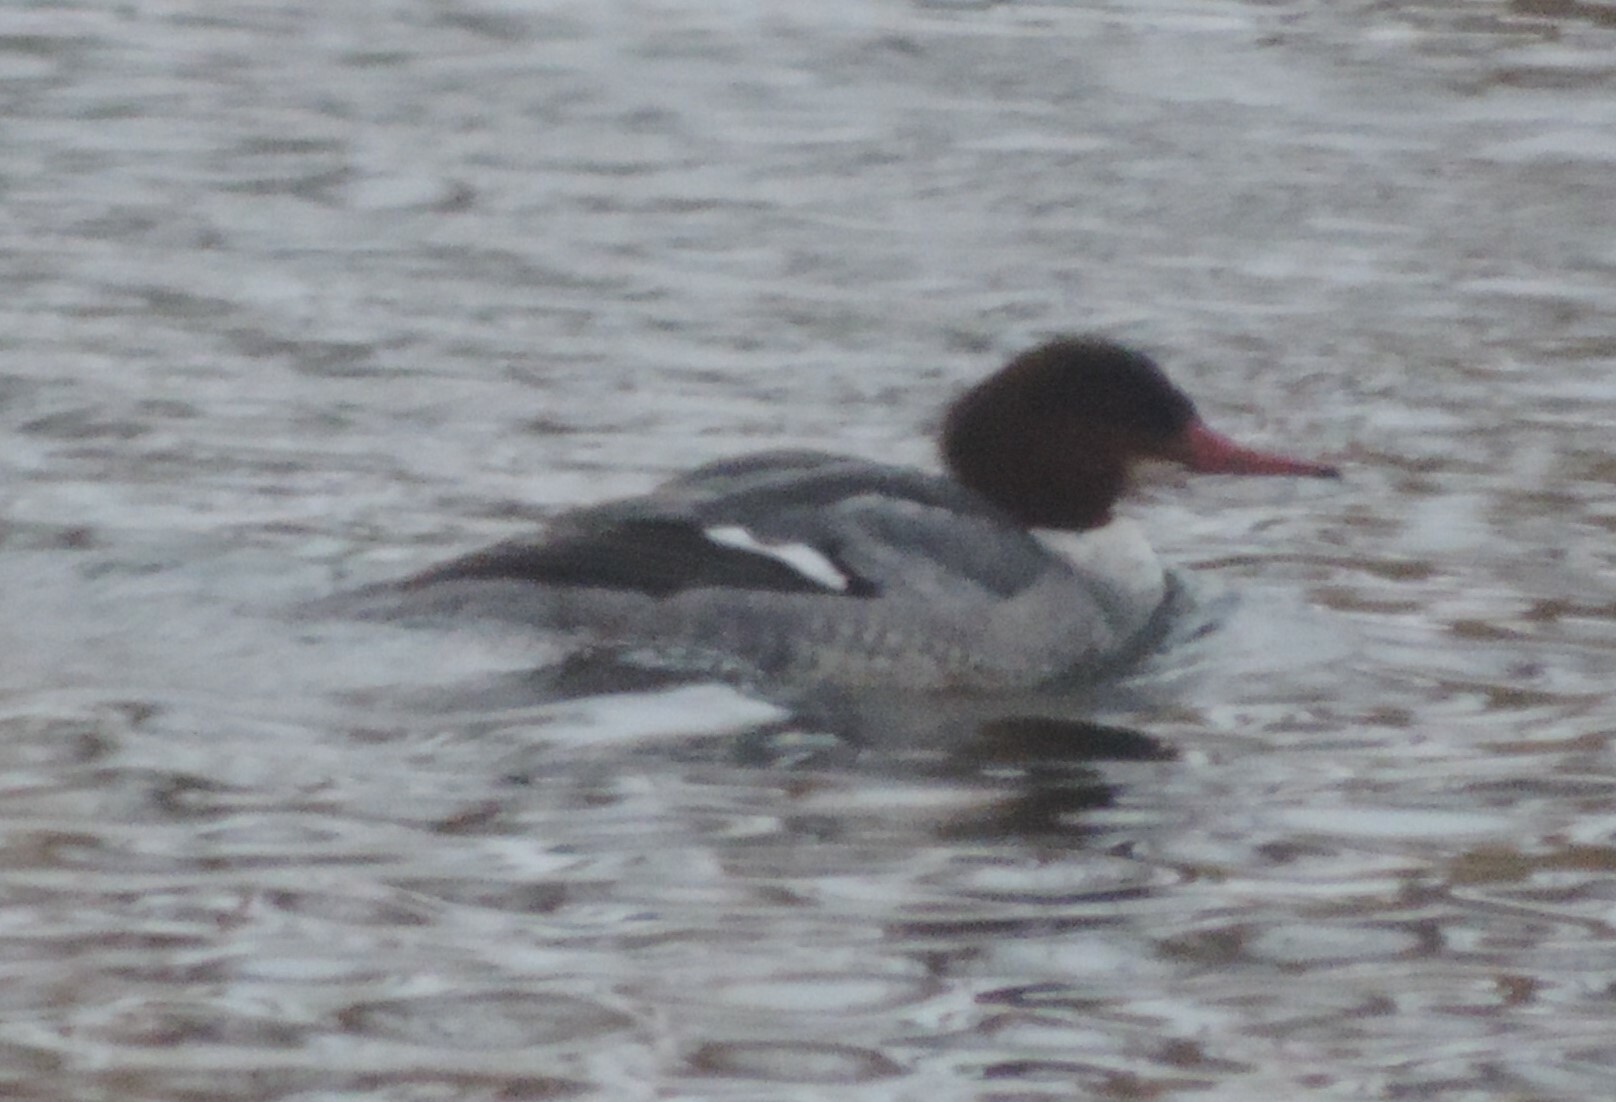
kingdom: Animalia
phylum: Chordata
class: Aves
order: Anseriformes
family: Anatidae
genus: Mergus
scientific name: Mergus merganser
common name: Common merganser
